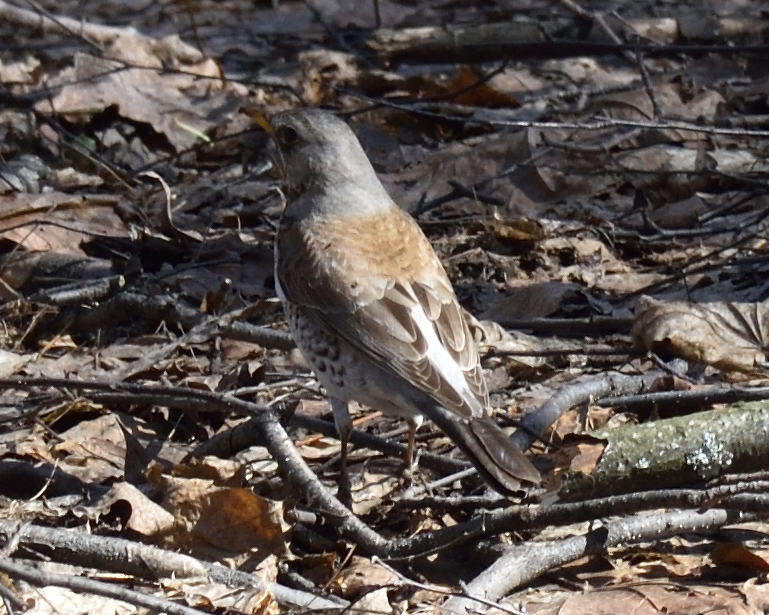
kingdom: Animalia
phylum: Chordata
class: Aves
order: Passeriformes
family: Turdidae
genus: Turdus
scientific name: Turdus pilaris
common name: Fieldfare
